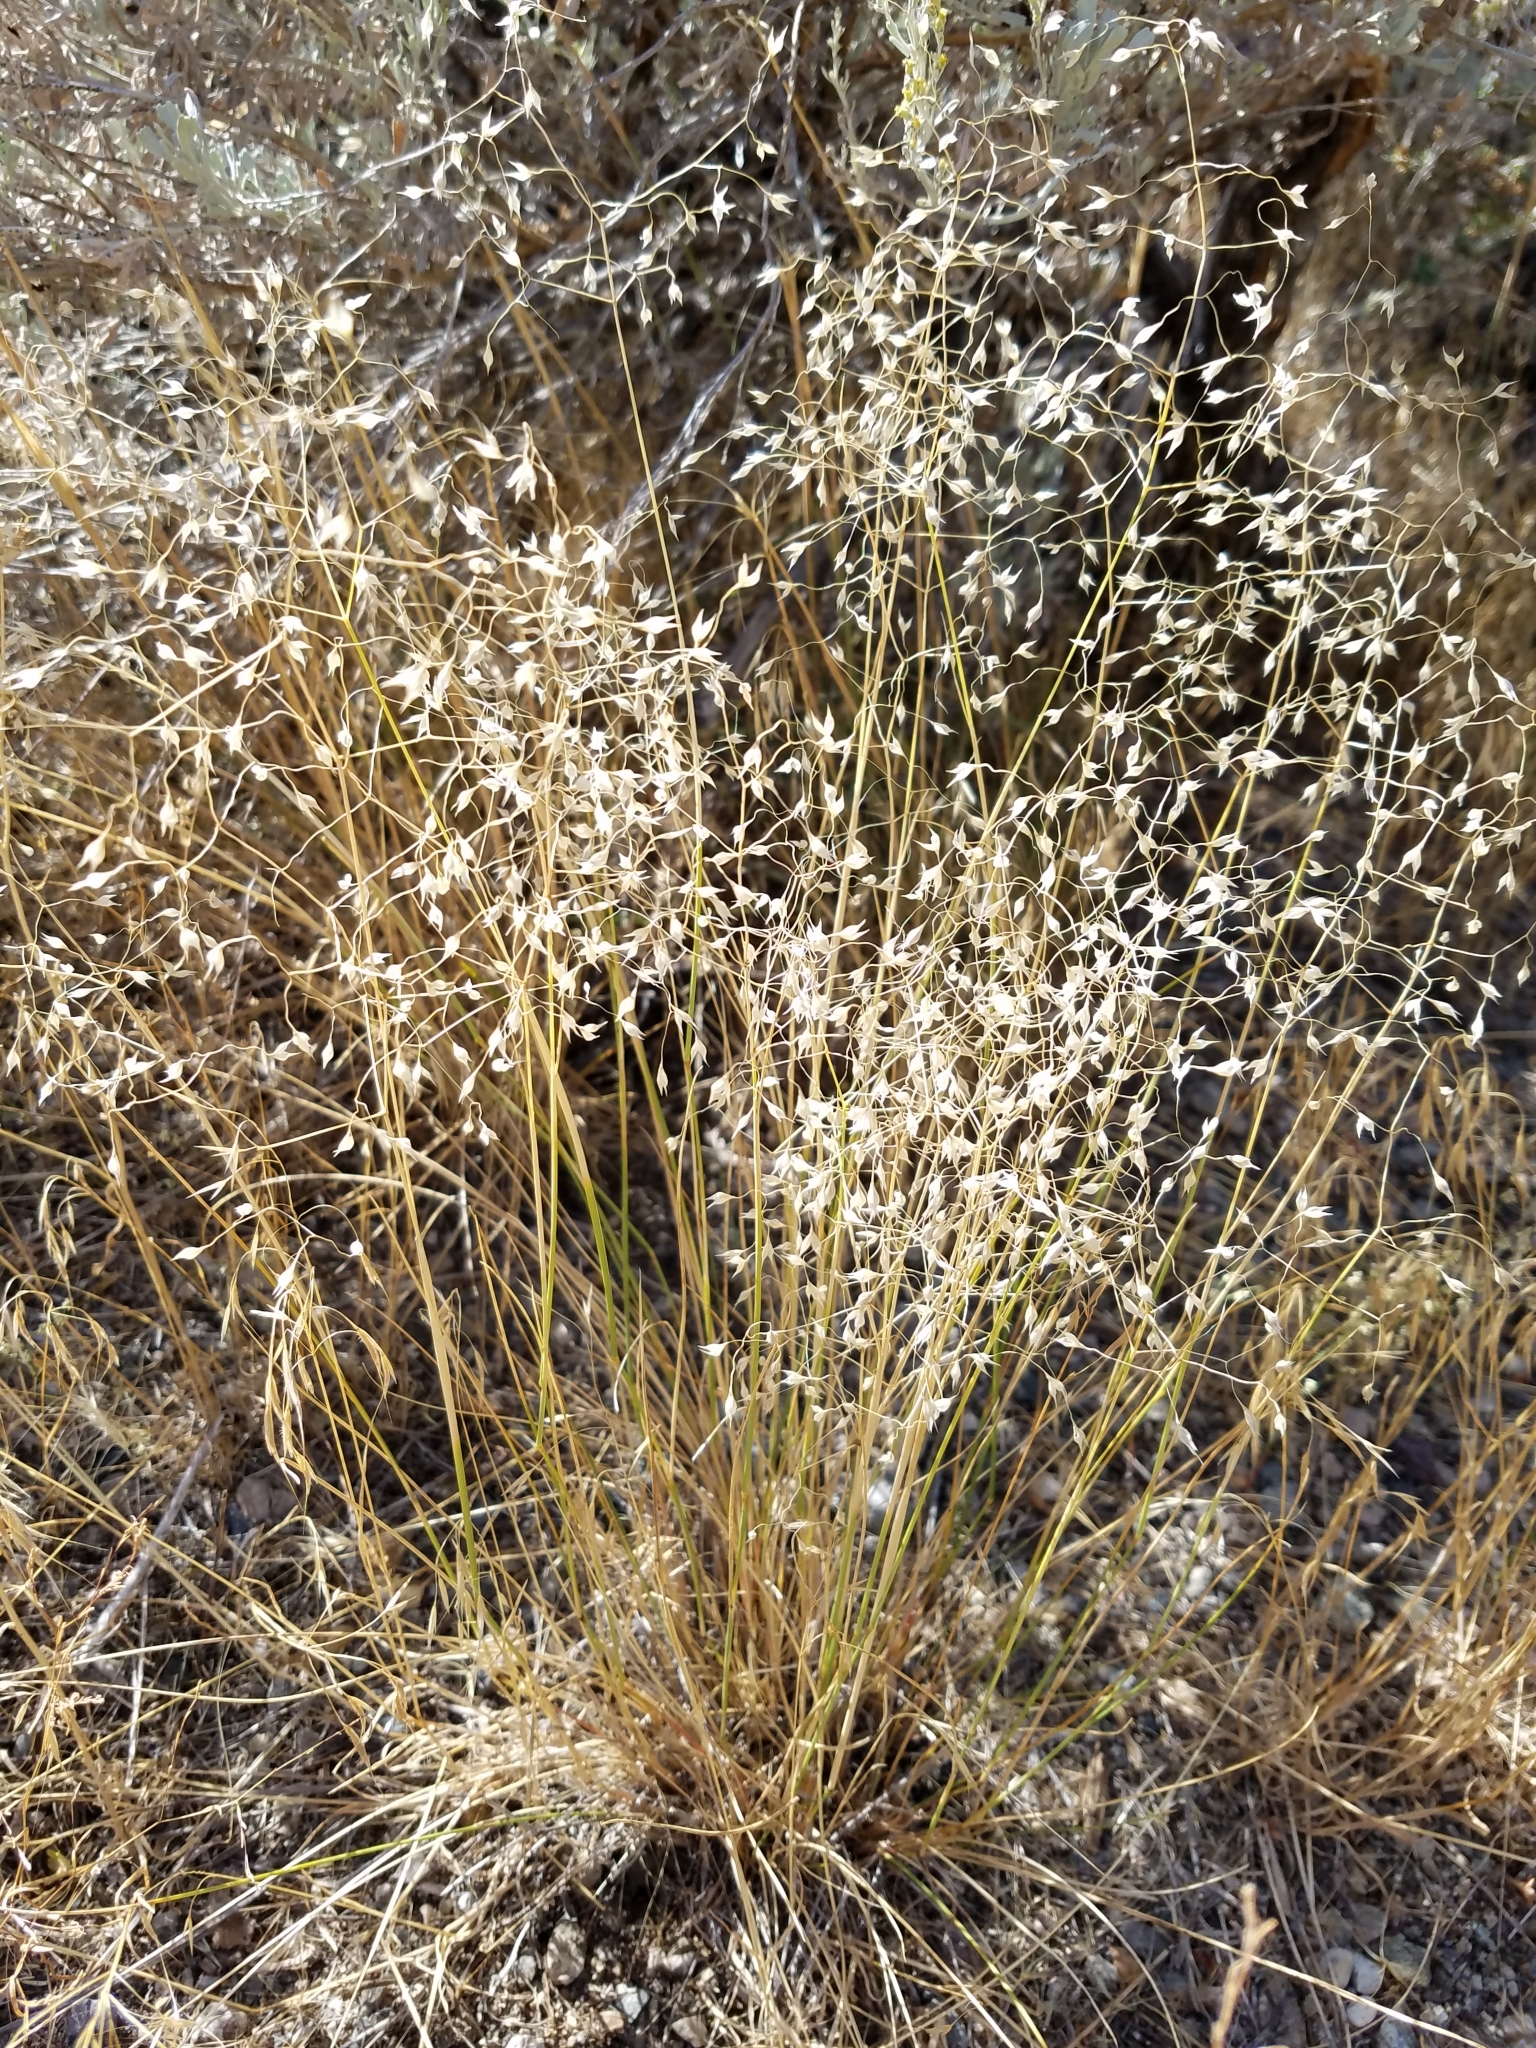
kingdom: Plantae
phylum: Tracheophyta
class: Liliopsida
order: Poales
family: Poaceae
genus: Eriocoma
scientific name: Eriocoma hymenoides
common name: Indian mountain ricegrass
